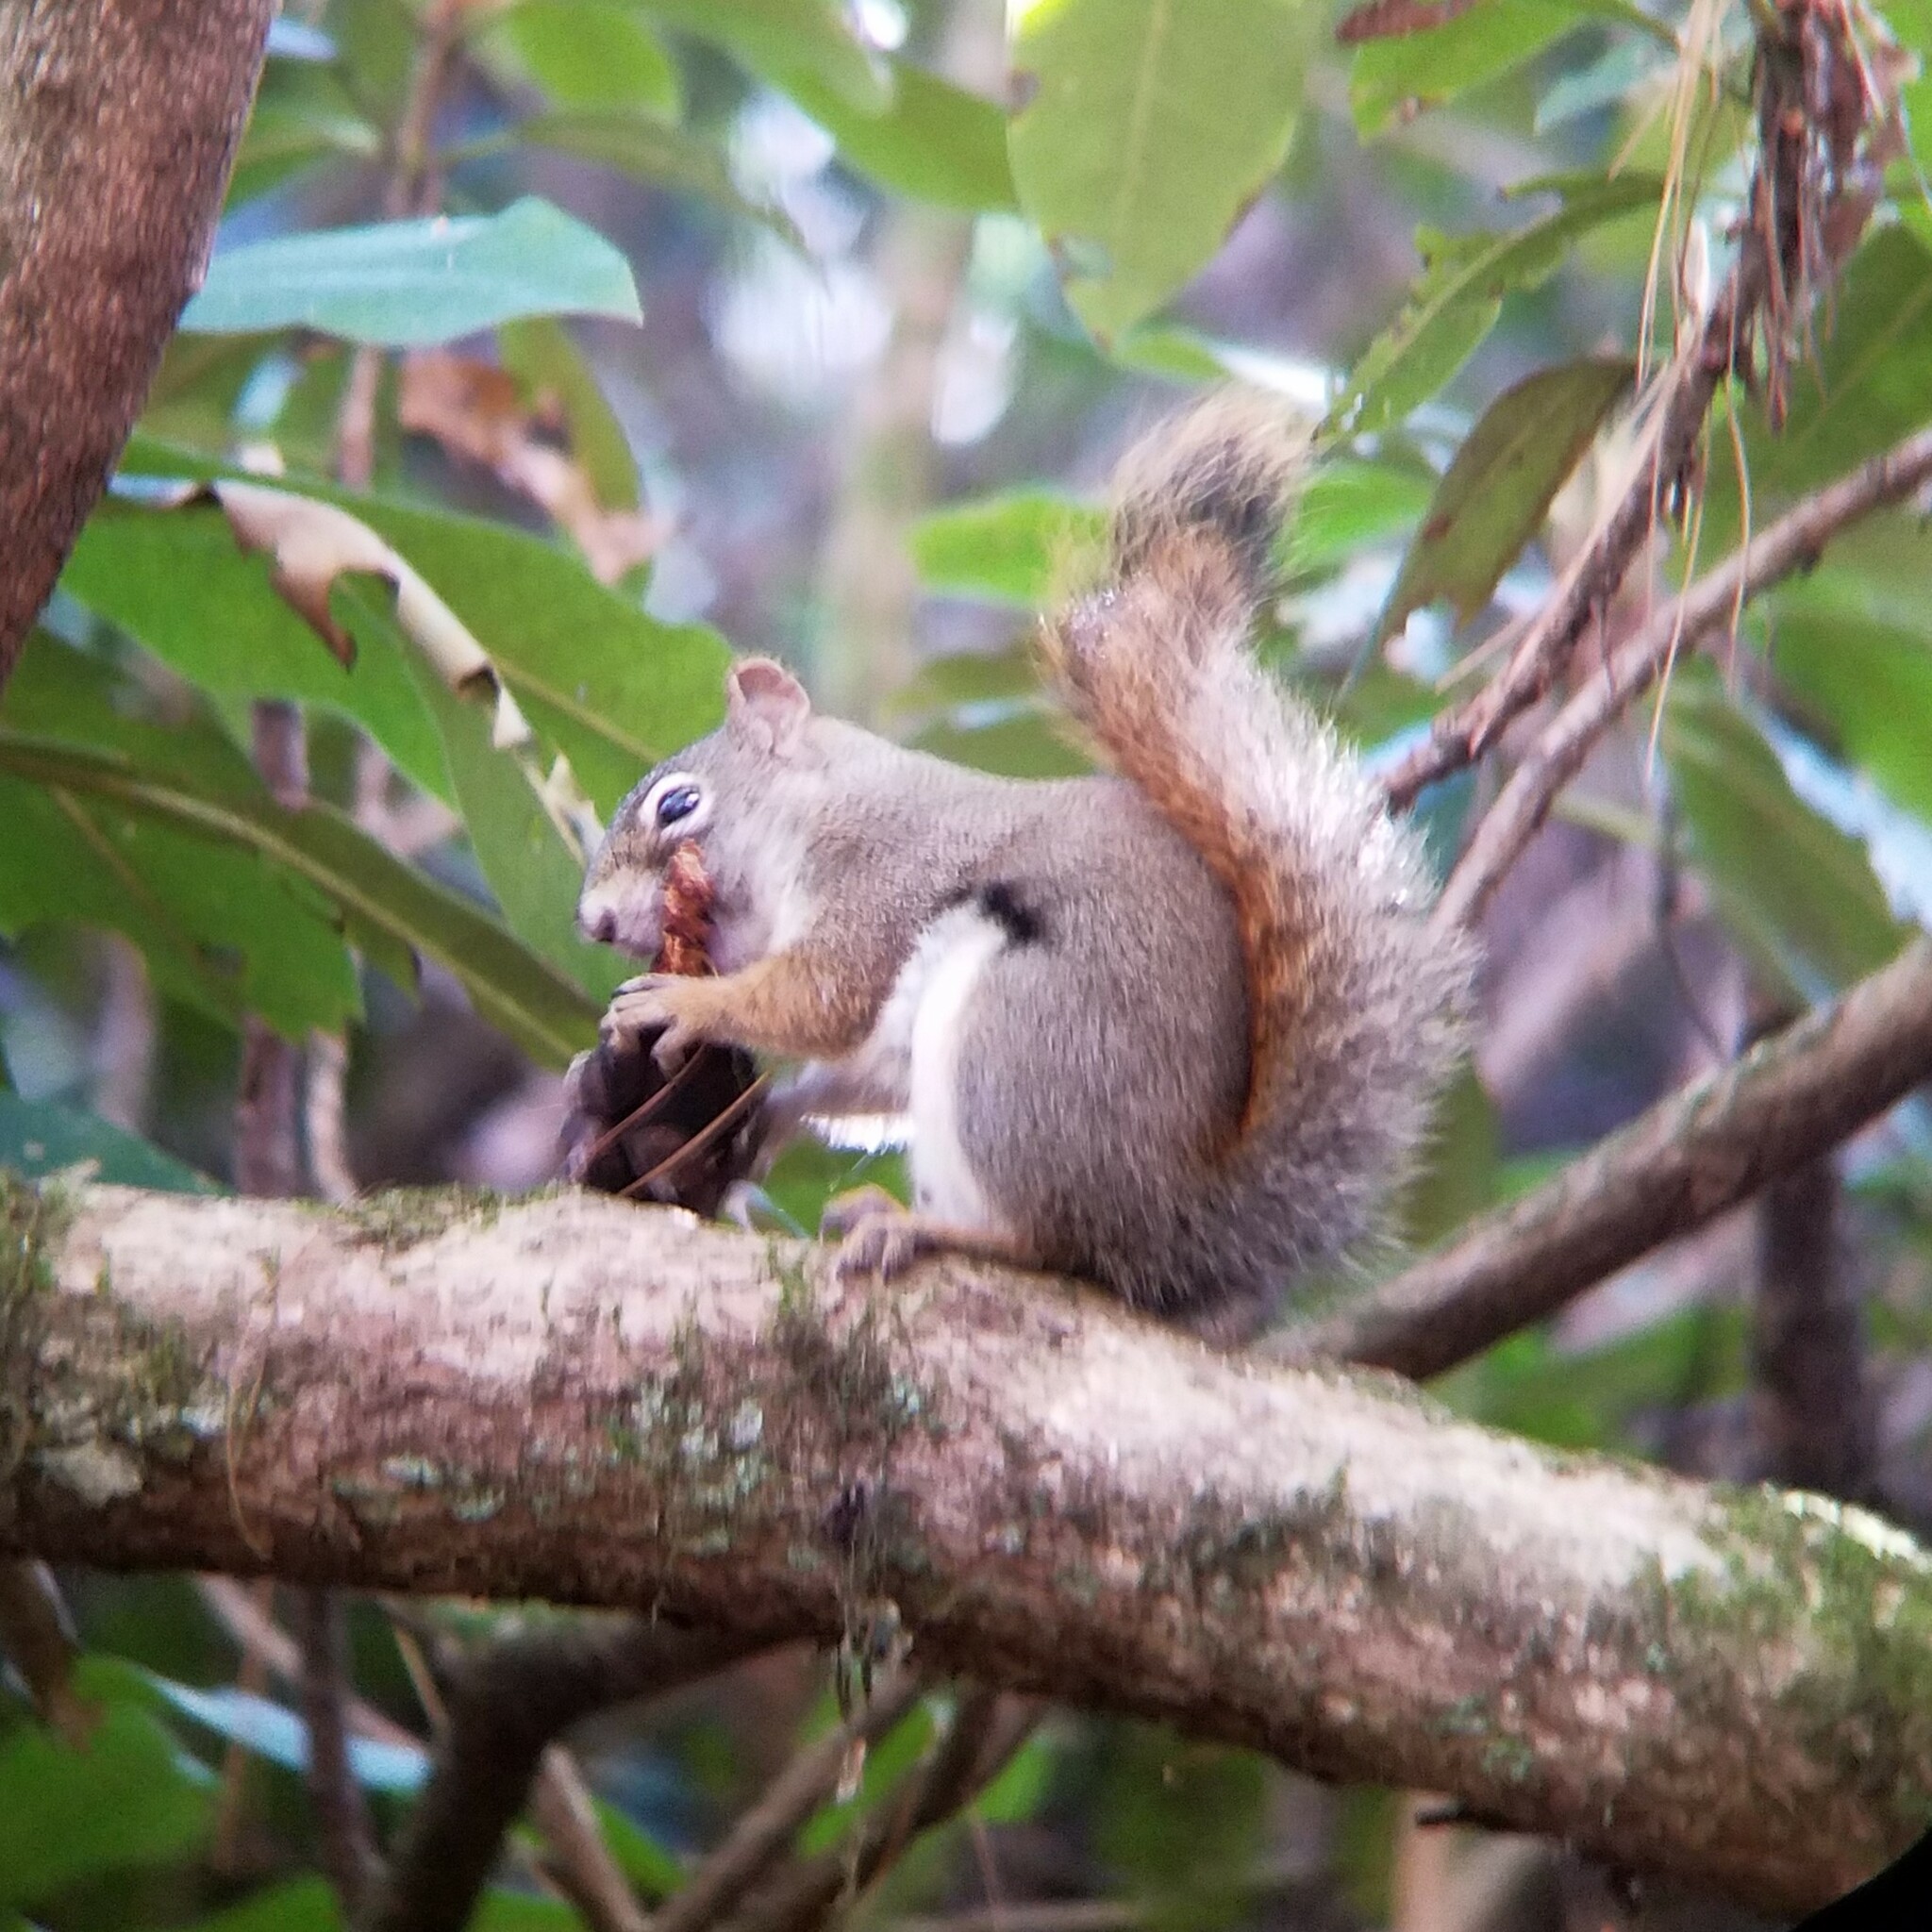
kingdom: Animalia
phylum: Chordata
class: Mammalia
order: Rodentia
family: Sciuridae
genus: Tamiasciurus
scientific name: Tamiasciurus hudsonicus
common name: Red squirrel
